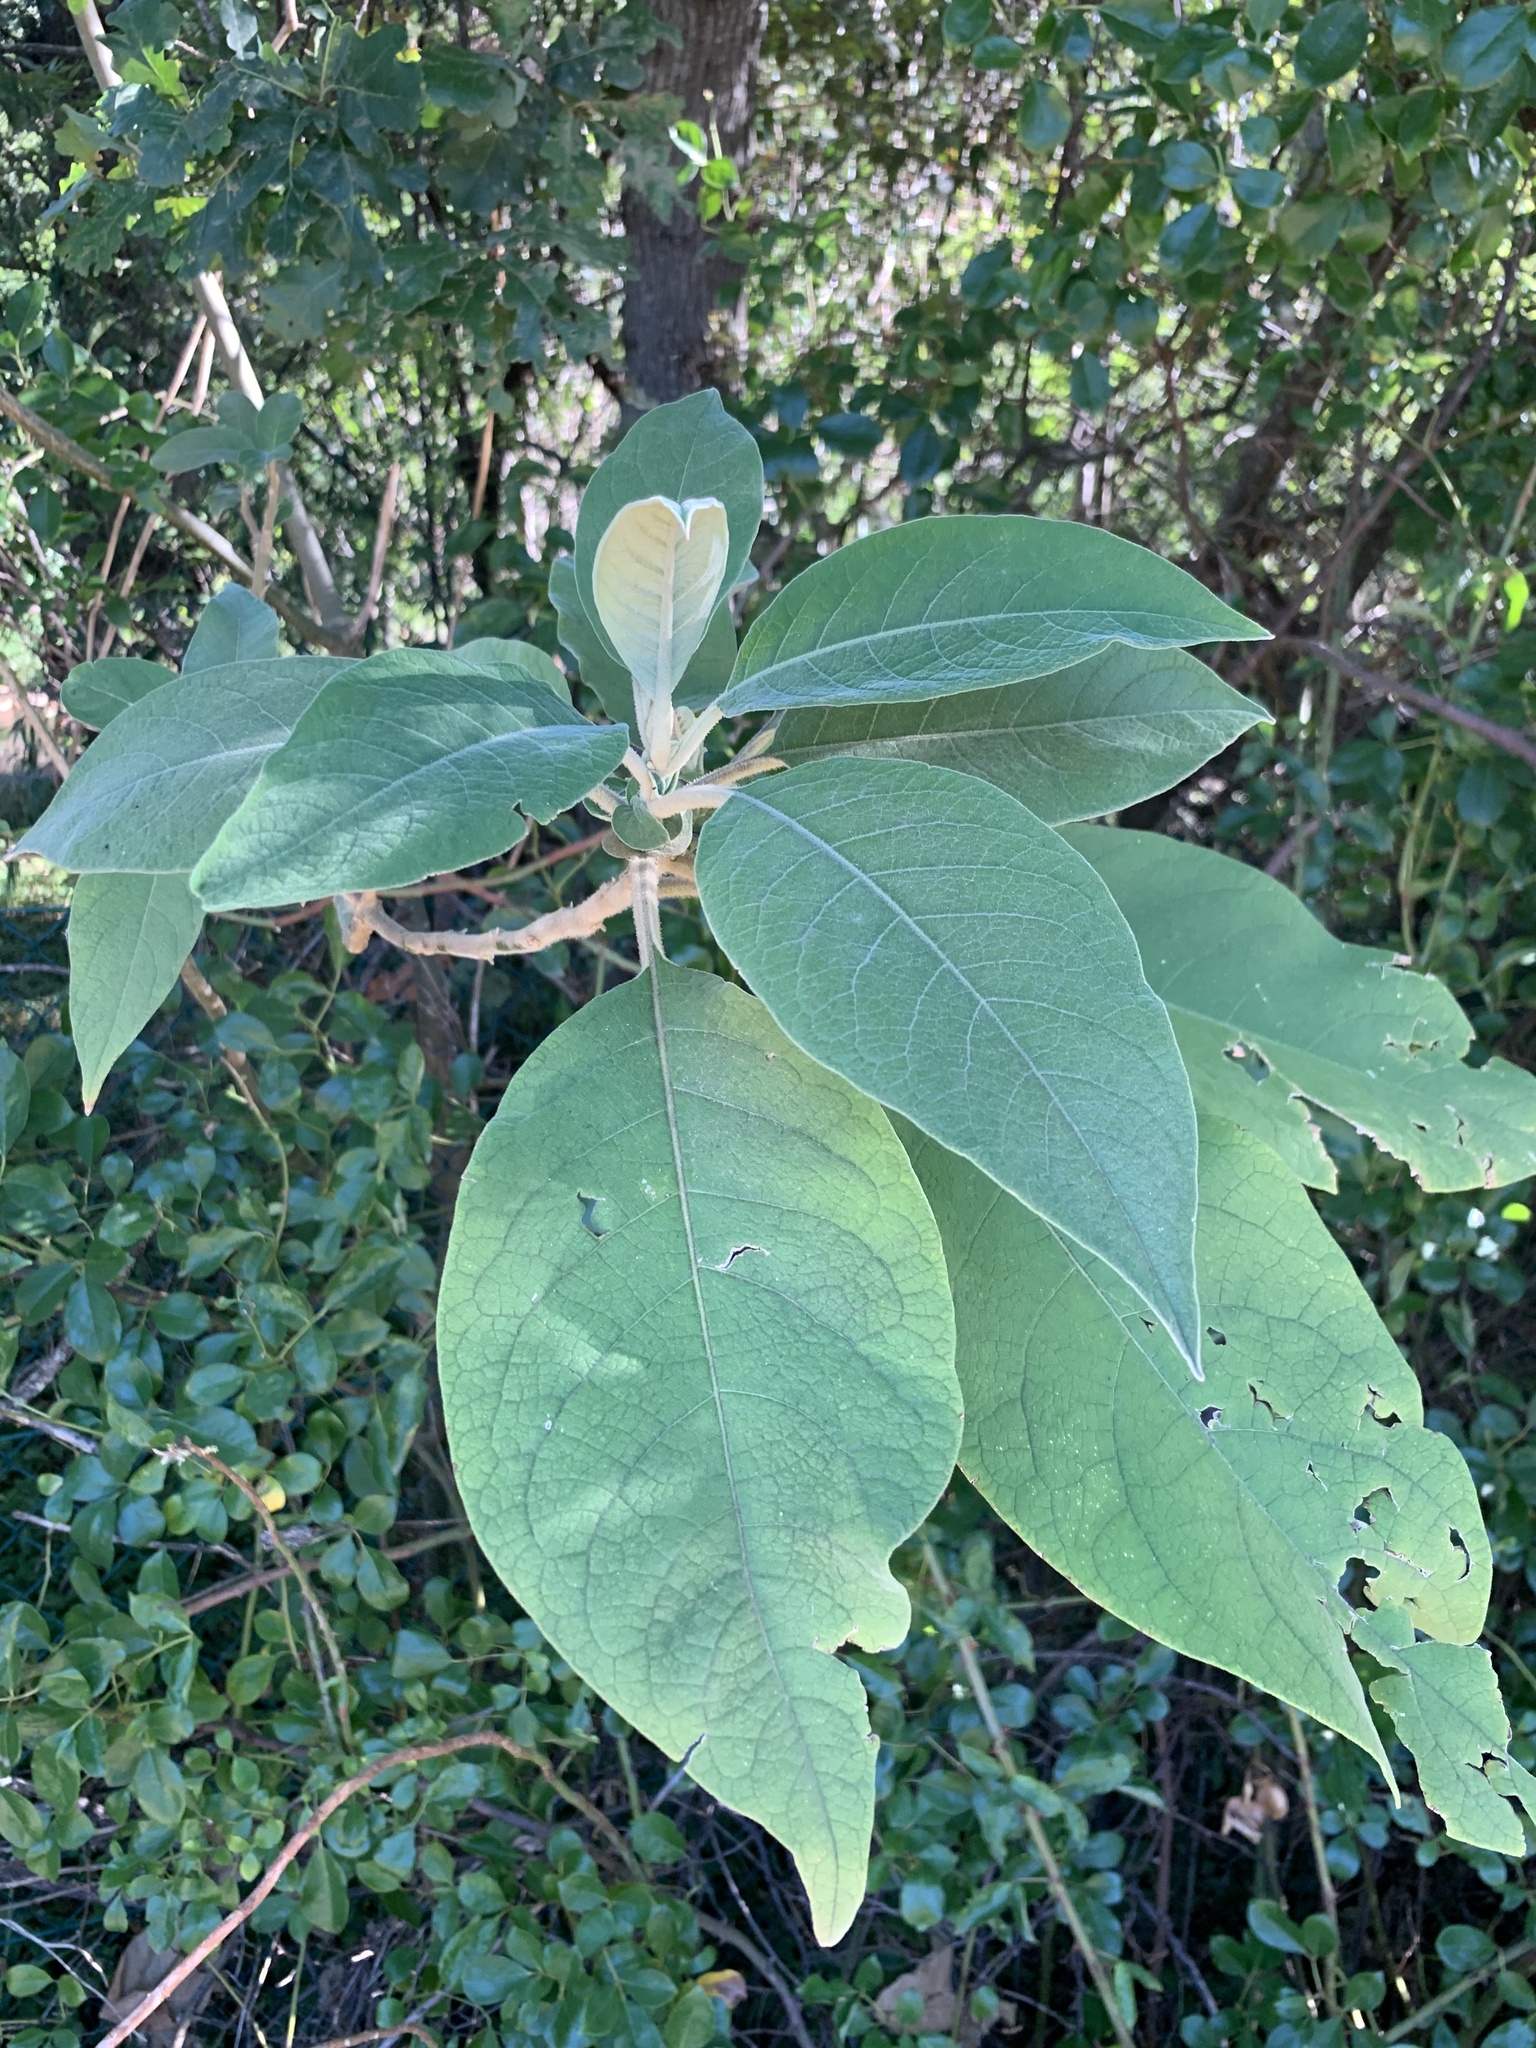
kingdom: Plantae
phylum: Tracheophyta
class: Magnoliopsida
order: Solanales
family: Solanaceae
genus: Solanum
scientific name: Solanum mauritianum
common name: Earleaf nightshade
